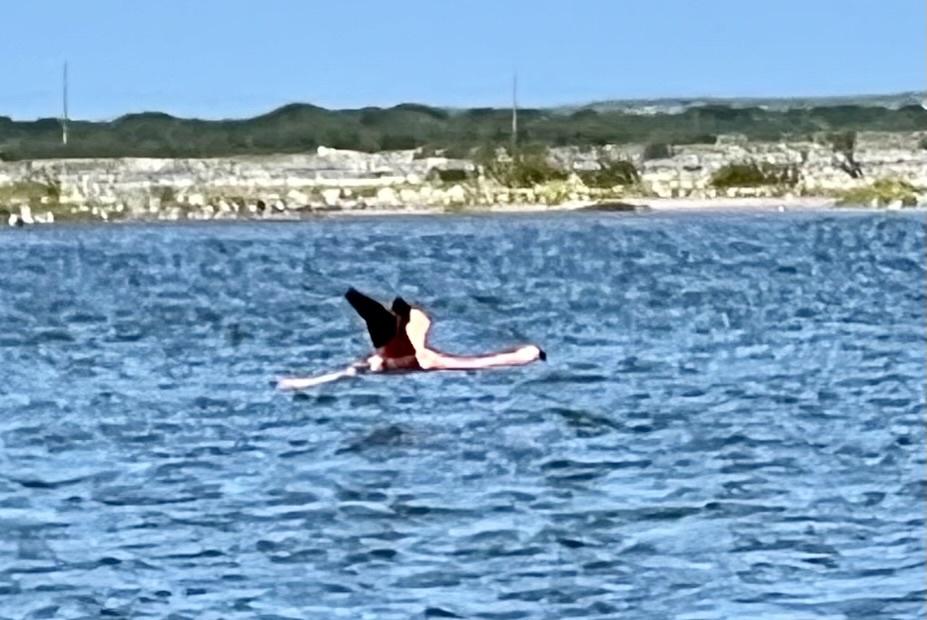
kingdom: Animalia
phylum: Chordata
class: Aves
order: Phoenicopteriformes
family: Phoenicopteridae
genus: Phoenicopterus
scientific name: Phoenicopterus ruber
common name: American flamingo
